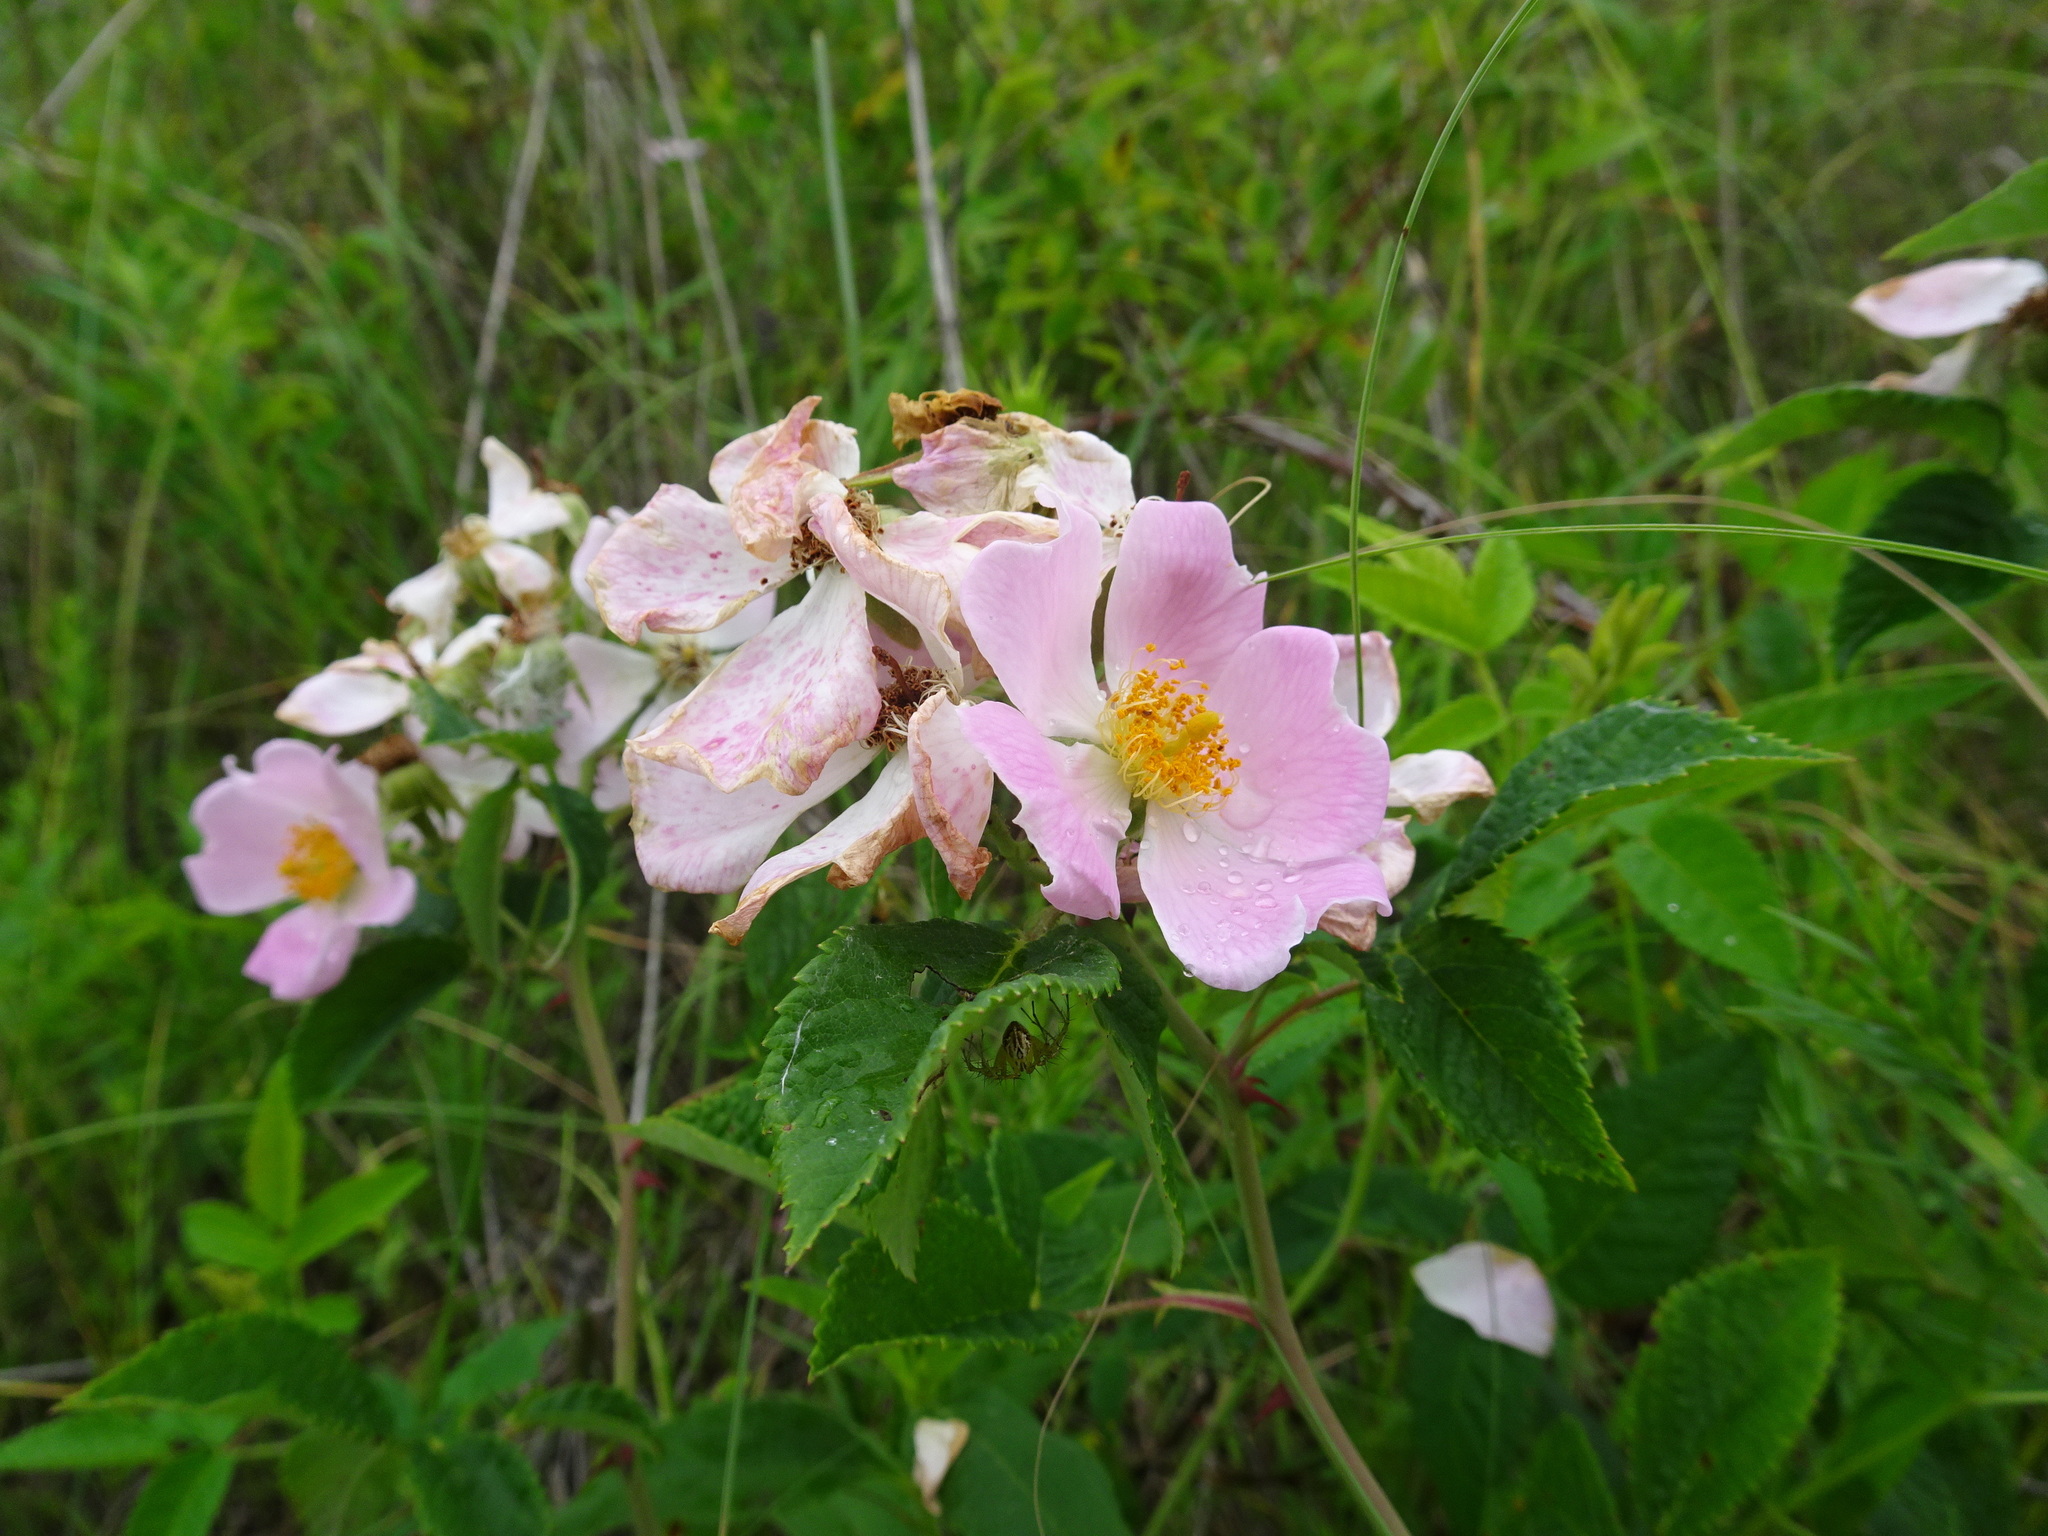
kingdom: Plantae
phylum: Tracheophyta
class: Magnoliopsida
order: Rosales
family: Rosaceae
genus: Rosa
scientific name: Rosa setigera
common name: Prairie rose
